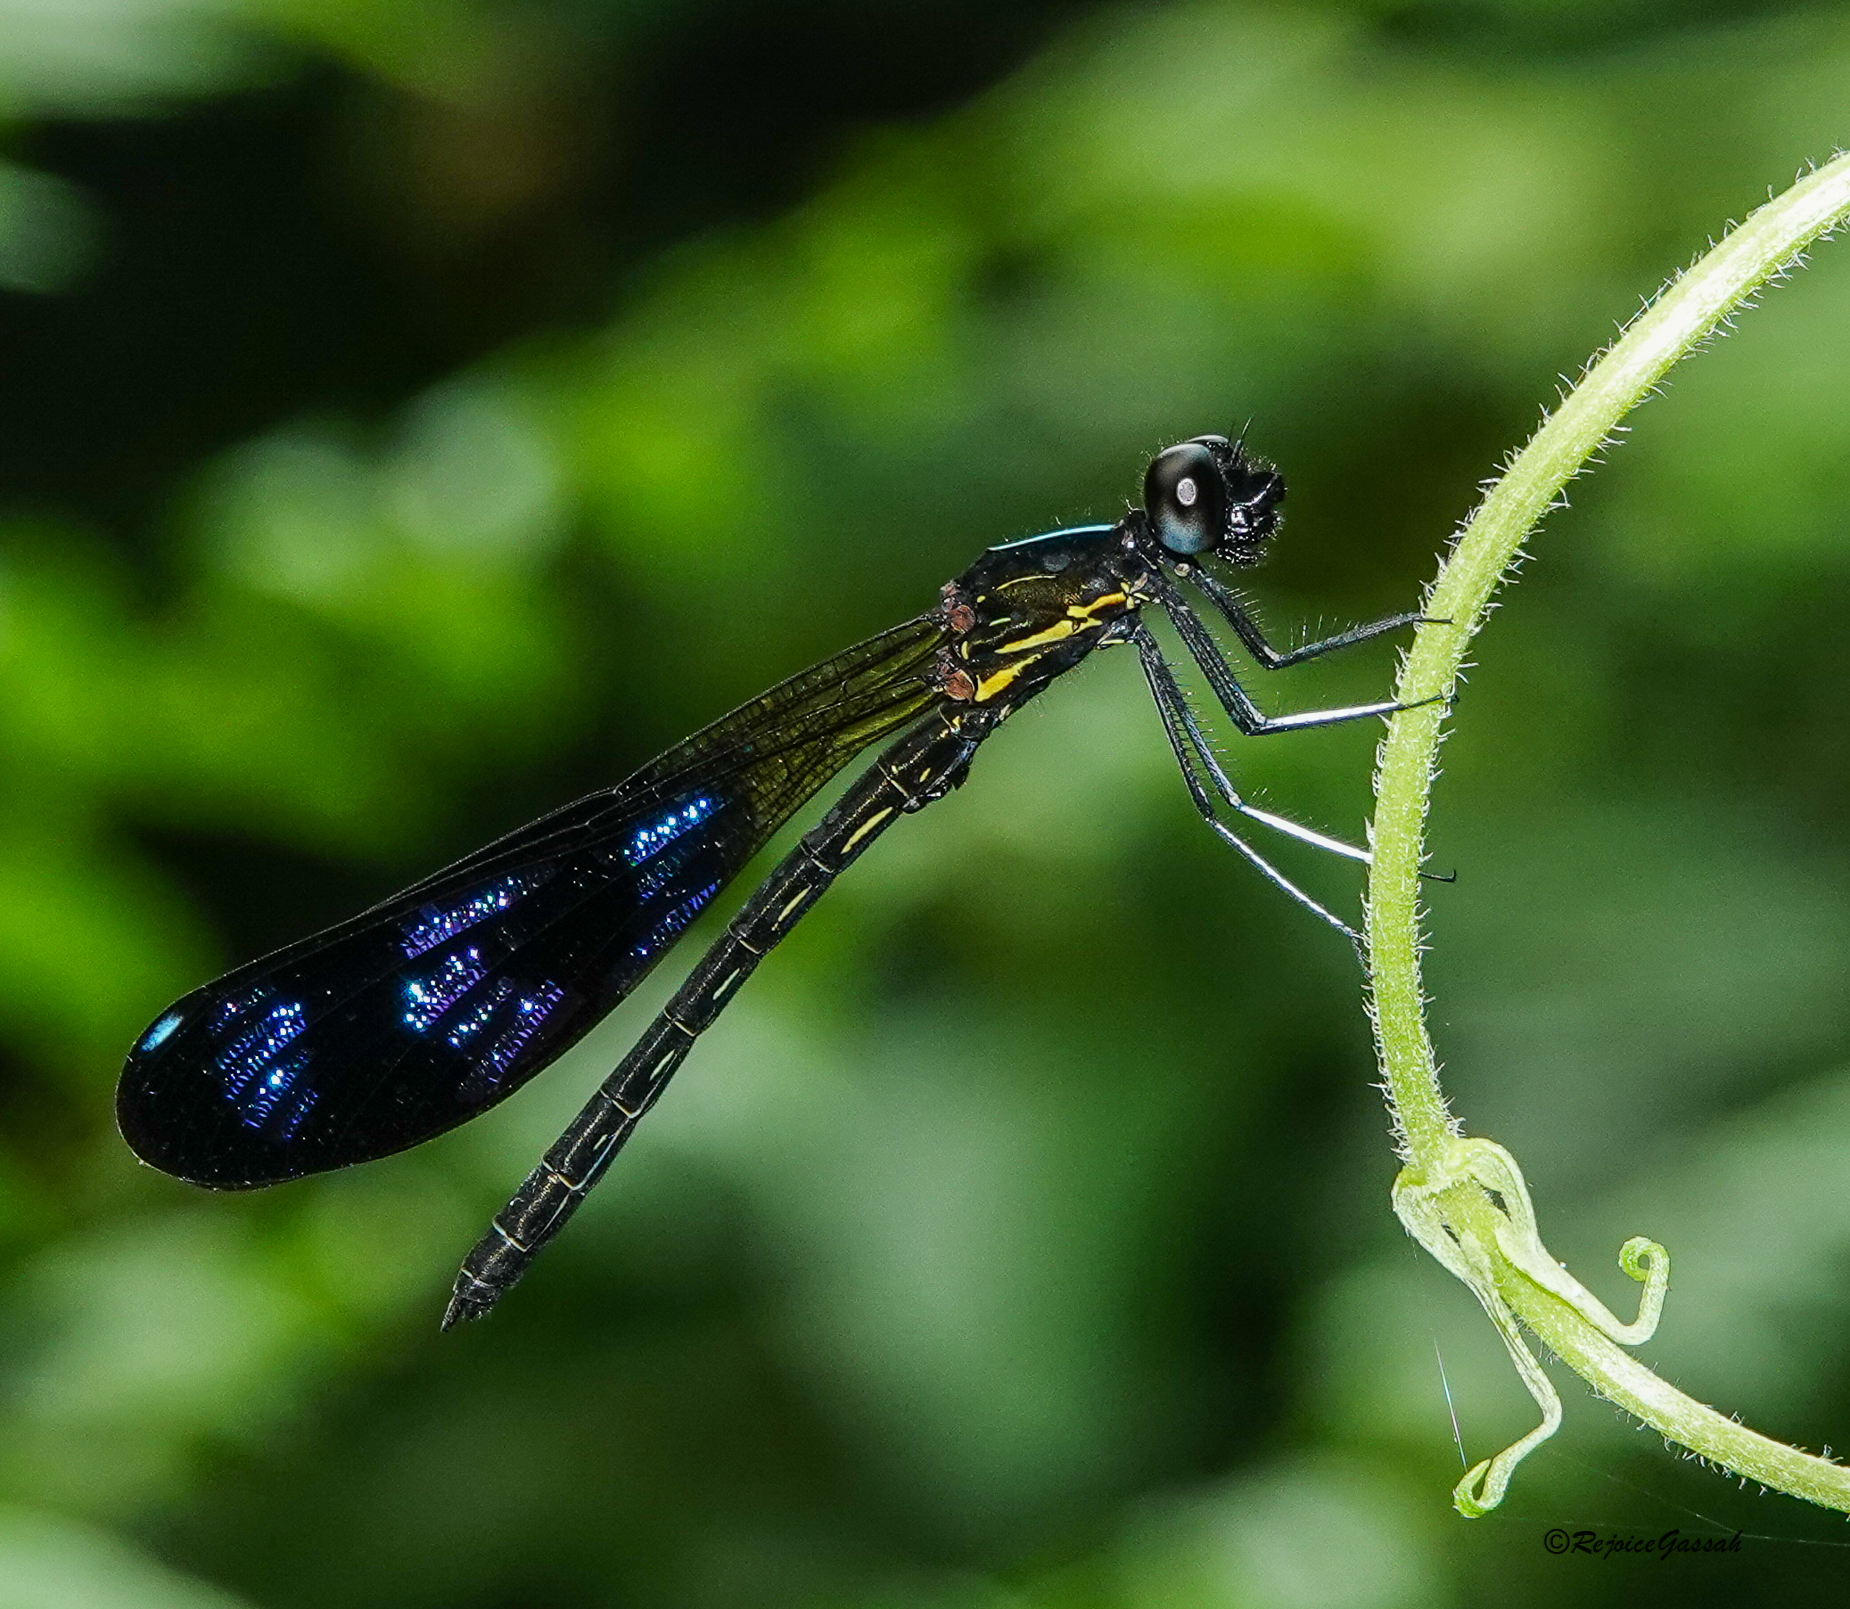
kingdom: Animalia
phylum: Arthropoda
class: Insecta
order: Odonata
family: Chlorocyphidae
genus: Aristocypha
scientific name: Aristocypha cuneata
